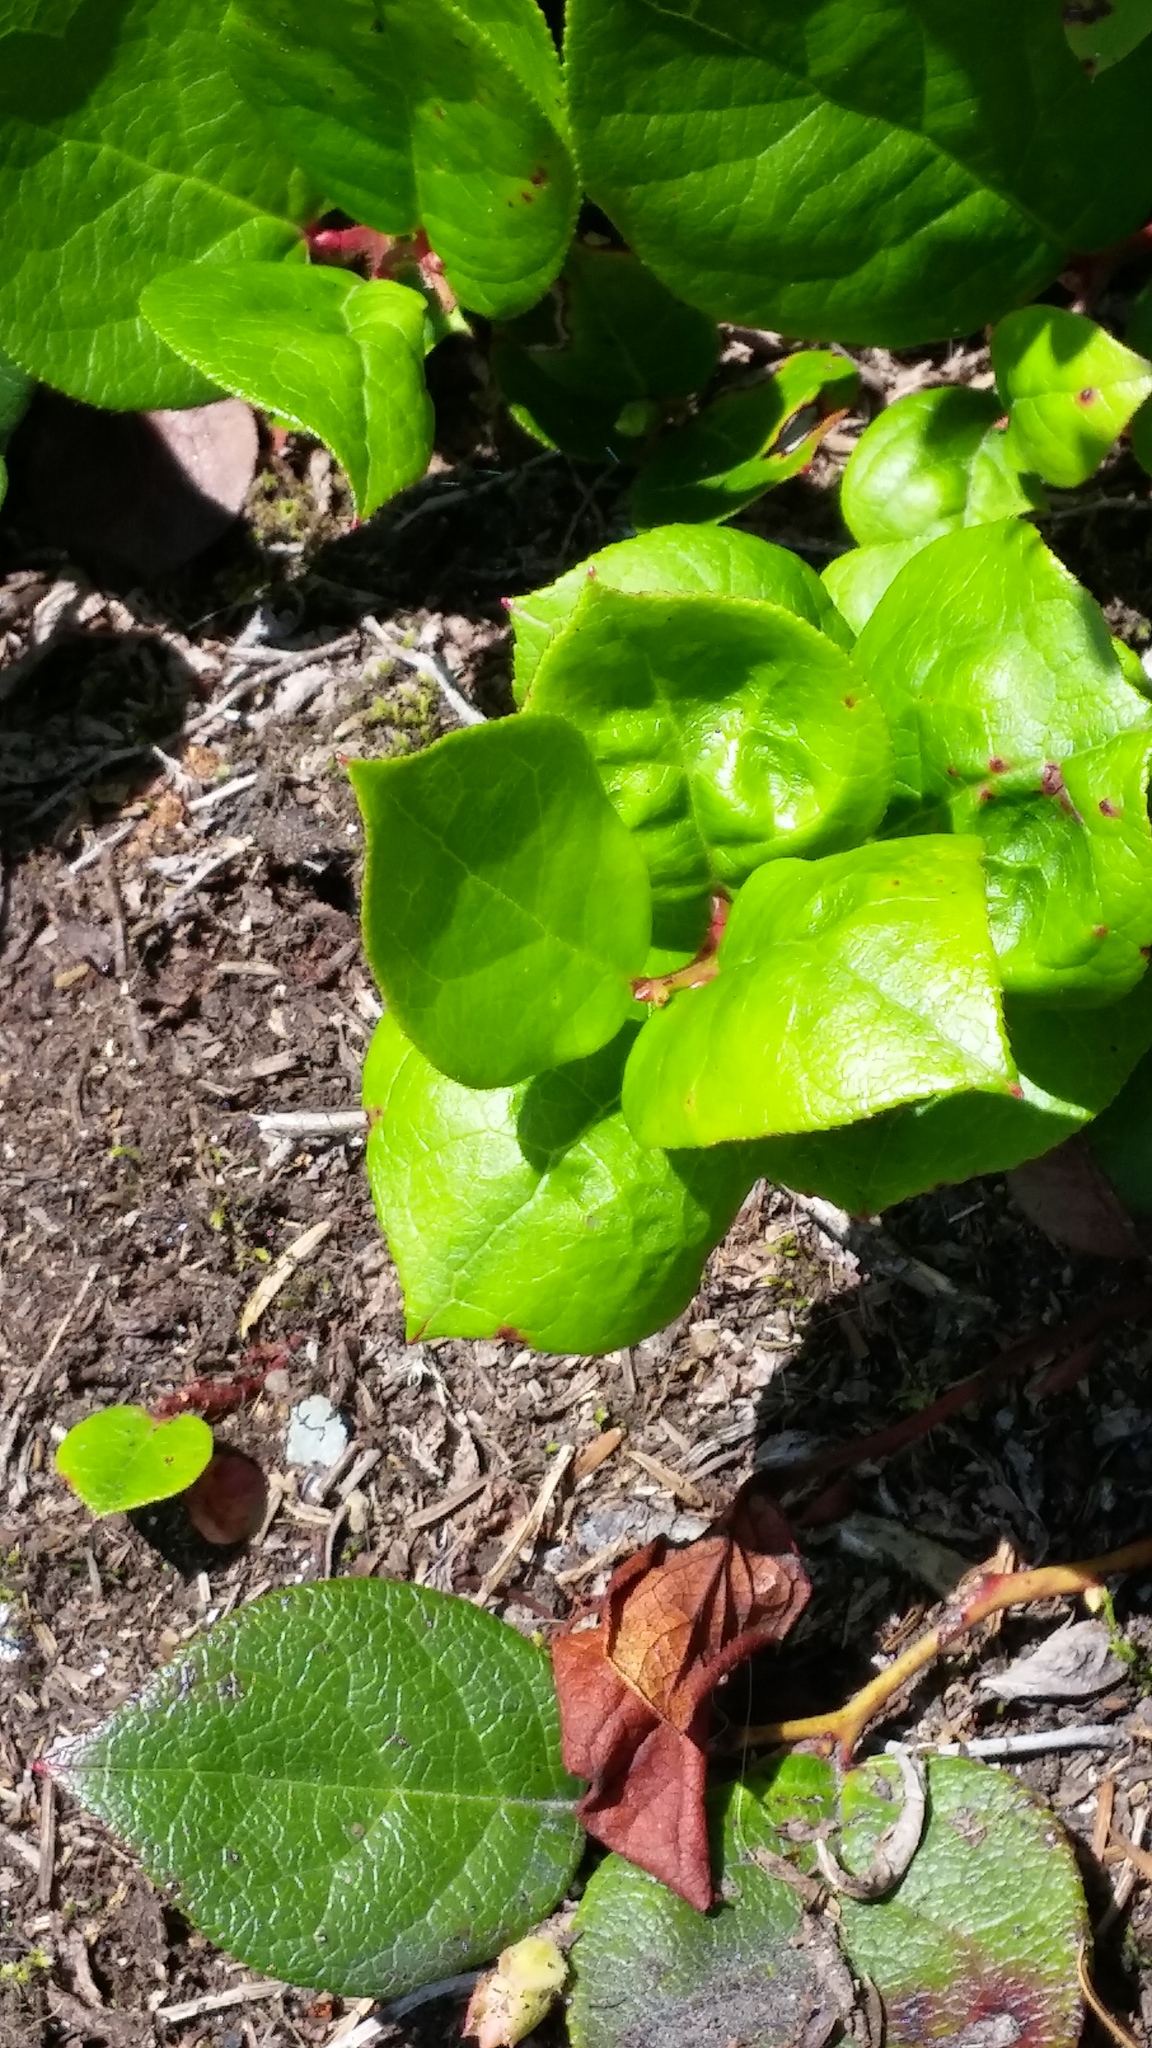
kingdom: Plantae
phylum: Tracheophyta
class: Magnoliopsida
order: Ericales
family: Ericaceae
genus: Gaultheria
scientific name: Gaultheria shallon
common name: Shallon
